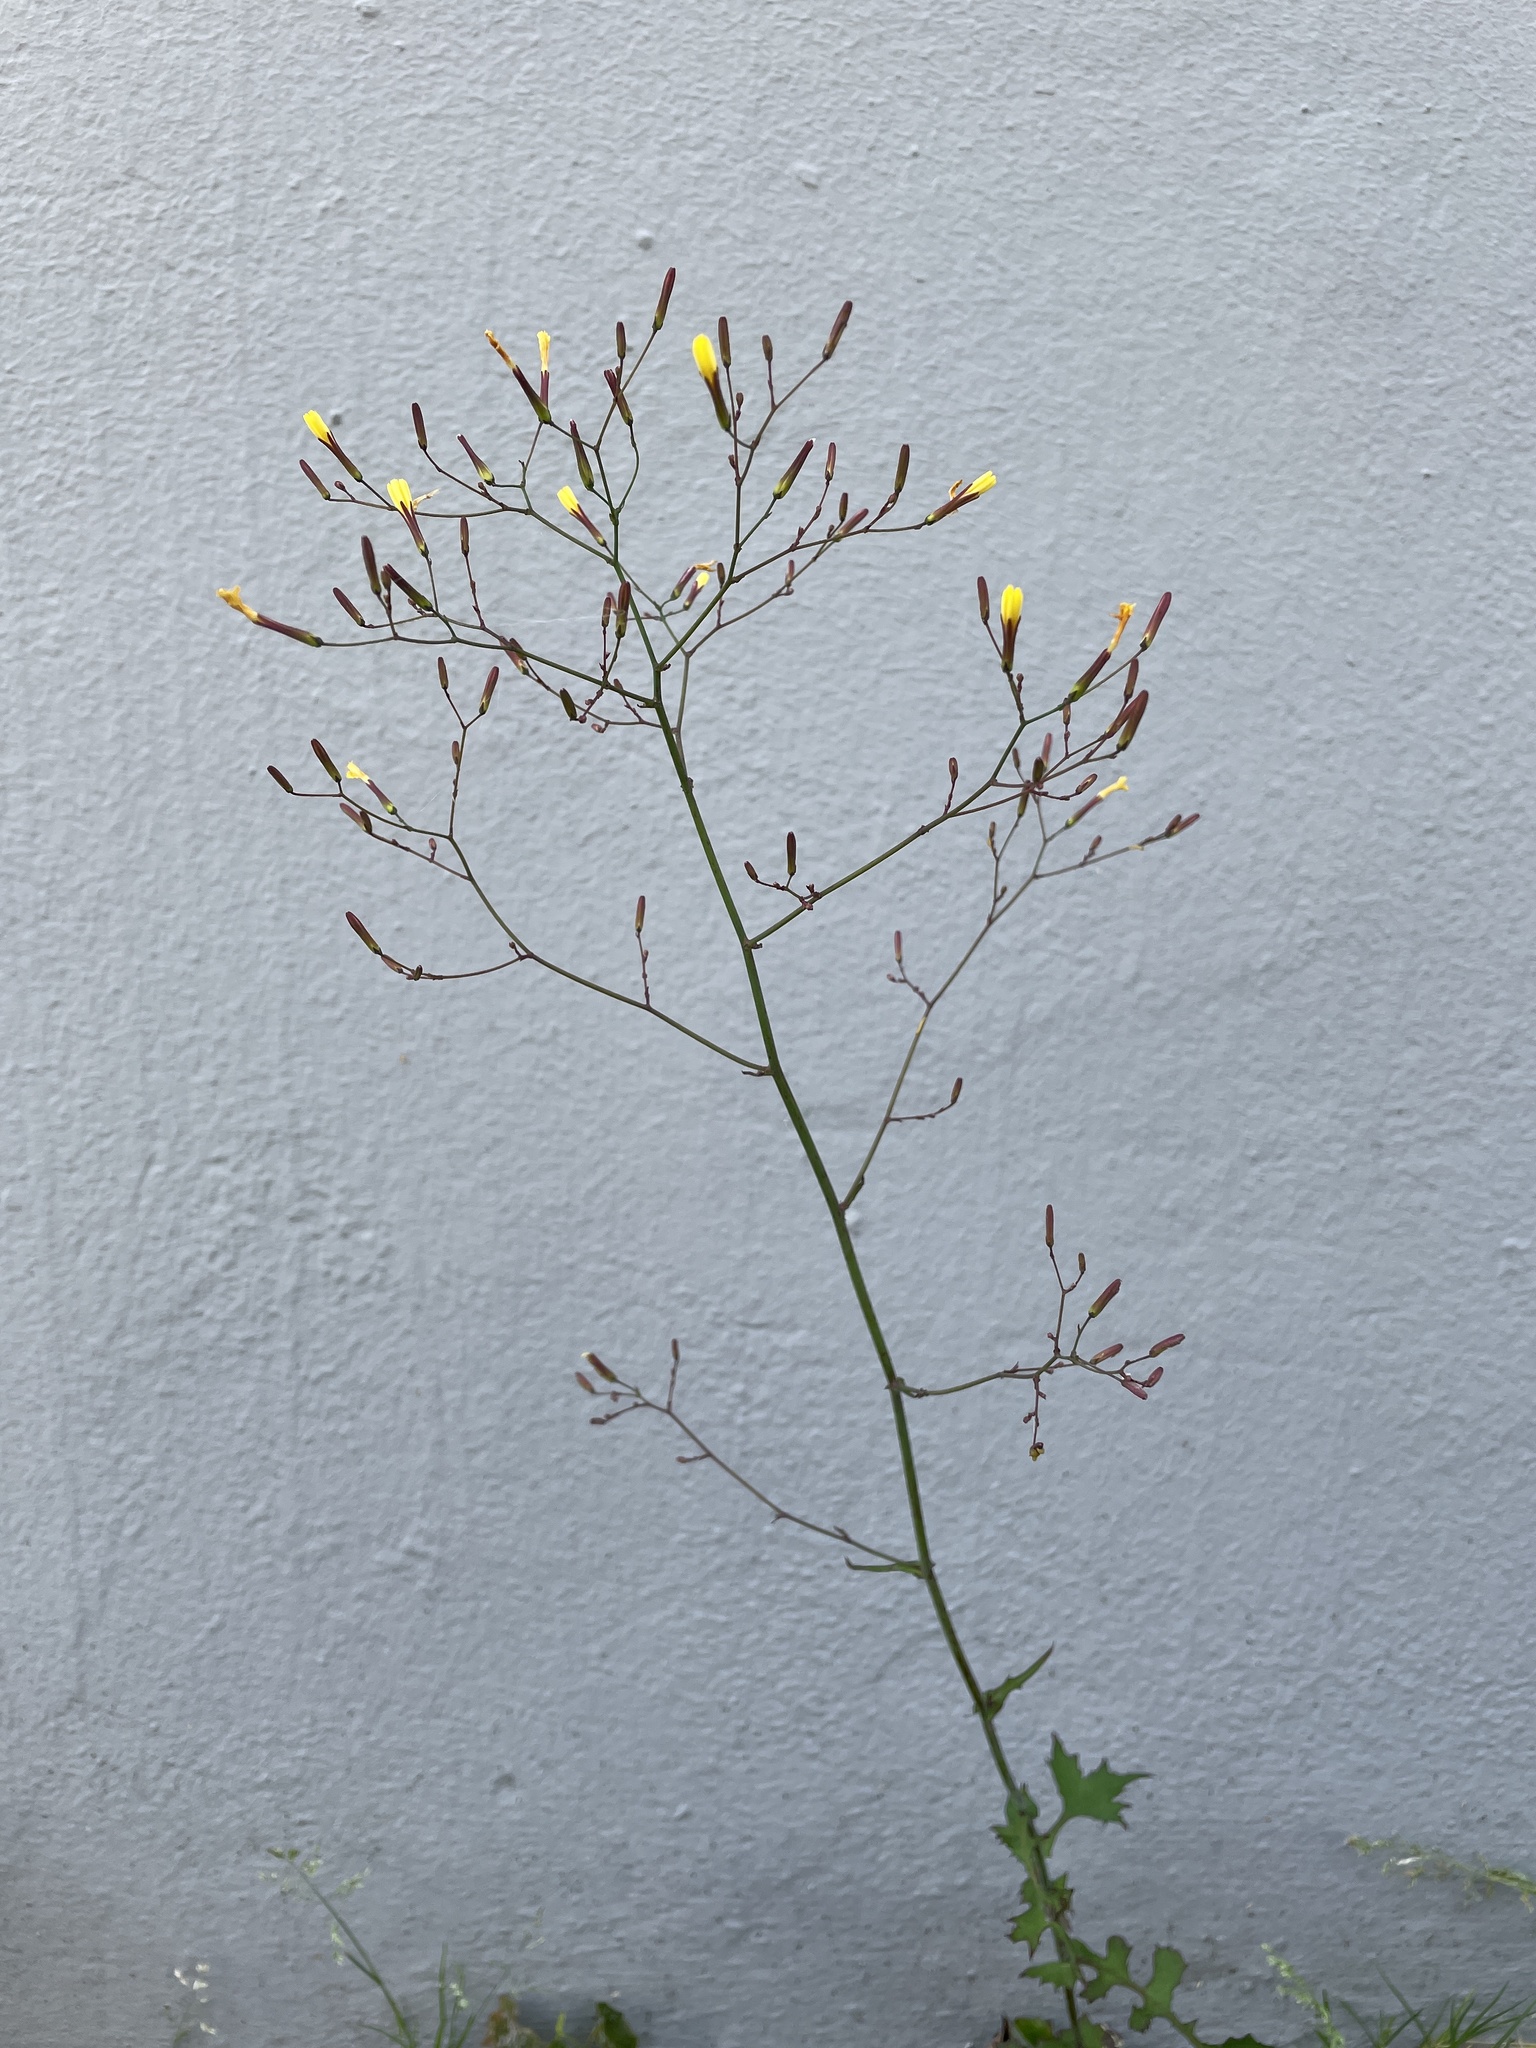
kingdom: Plantae
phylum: Tracheophyta
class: Magnoliopsida
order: Asterales
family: Asteraceae
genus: Mycelis
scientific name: Mycelis muralis
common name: Wall lettuce
